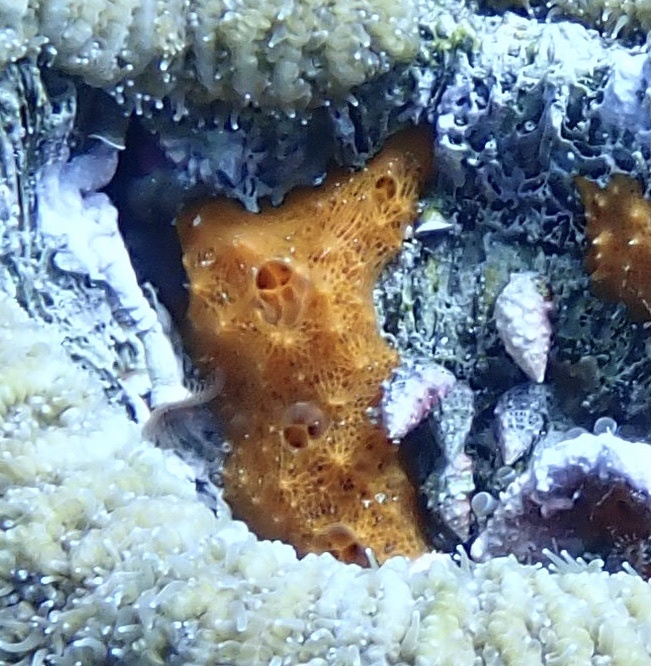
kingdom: Animalia
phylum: Porifera
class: Demospongiae
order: Scopalinida
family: Scopalinidae
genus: Scopalina
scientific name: Scopalina ruetzleri
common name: Orange lumpy encrusting sponge
